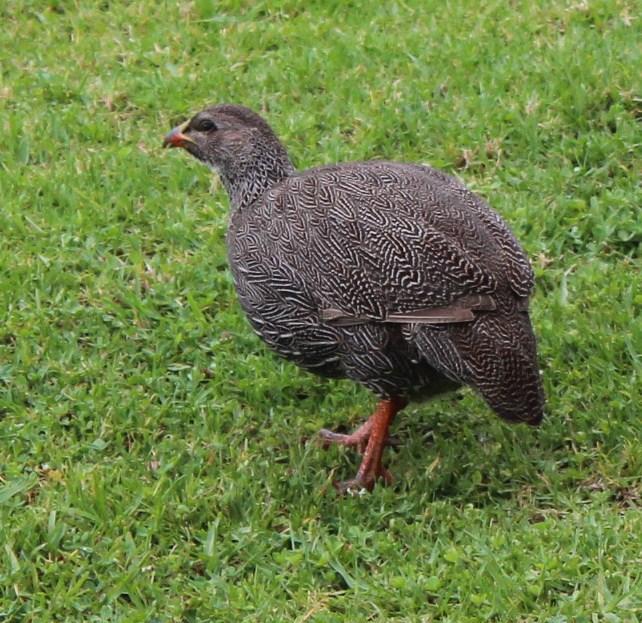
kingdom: Animalia
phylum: Chordata
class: Aves
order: Galliformes
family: Phasianidae
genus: Pternistis
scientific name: Pternistis capensis
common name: Cape spurfowl
